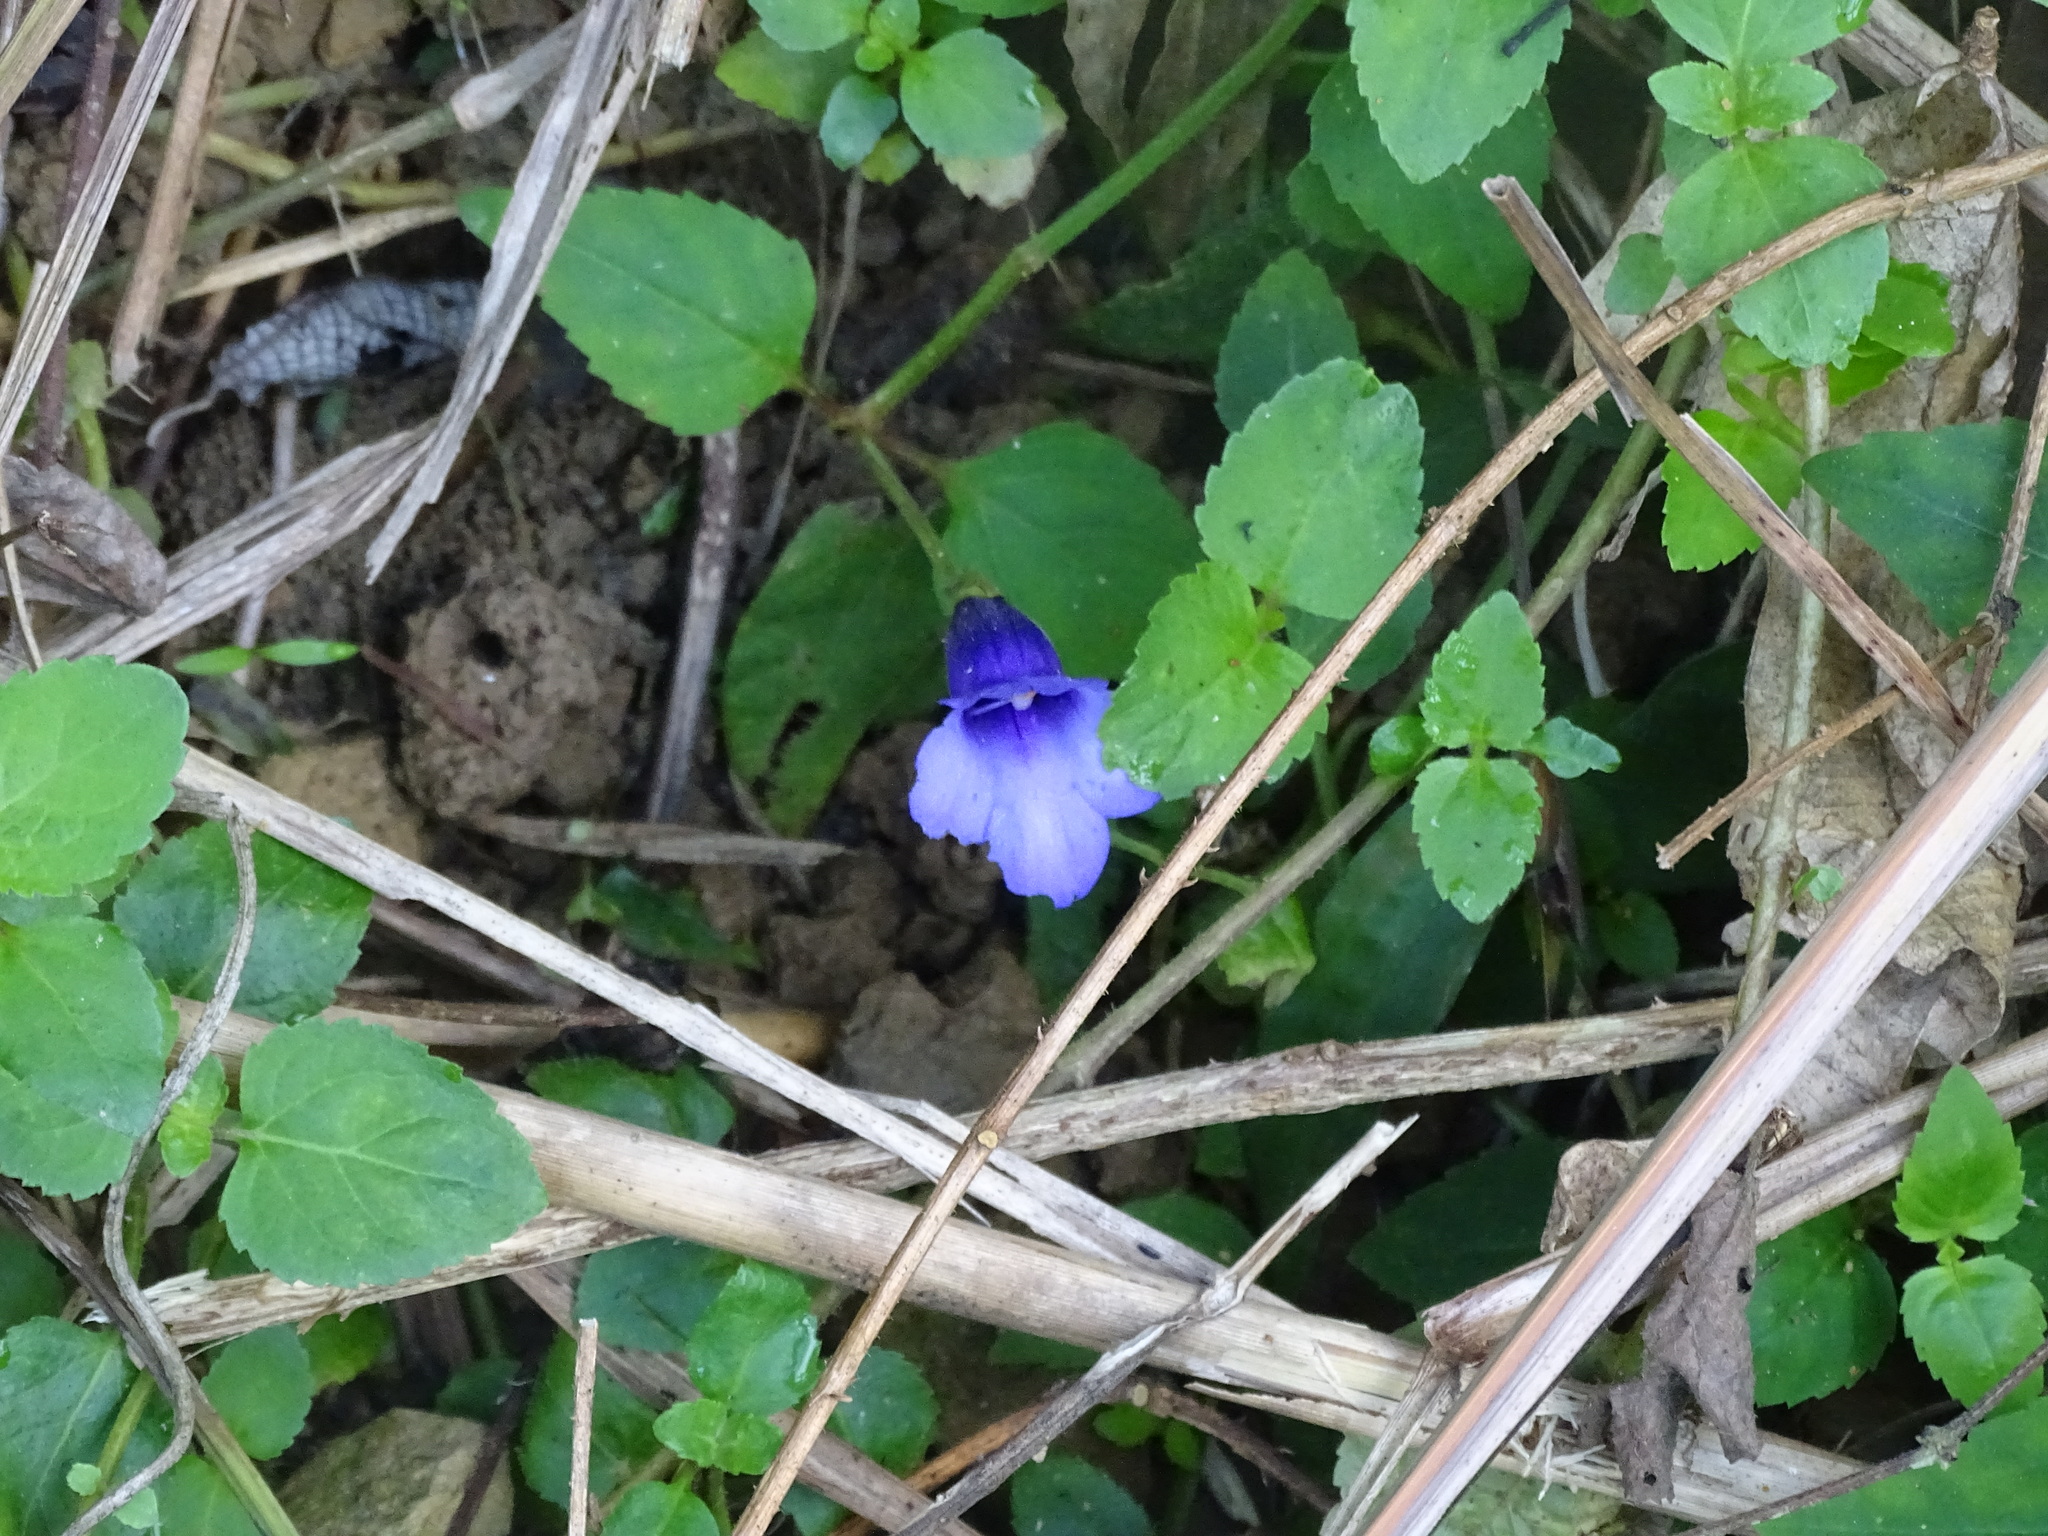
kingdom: Plantae
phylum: Tracheophyta
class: Magnoliopsida
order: Lamiales
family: Linderniaceae
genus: Torenia
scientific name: Torenia concolor
